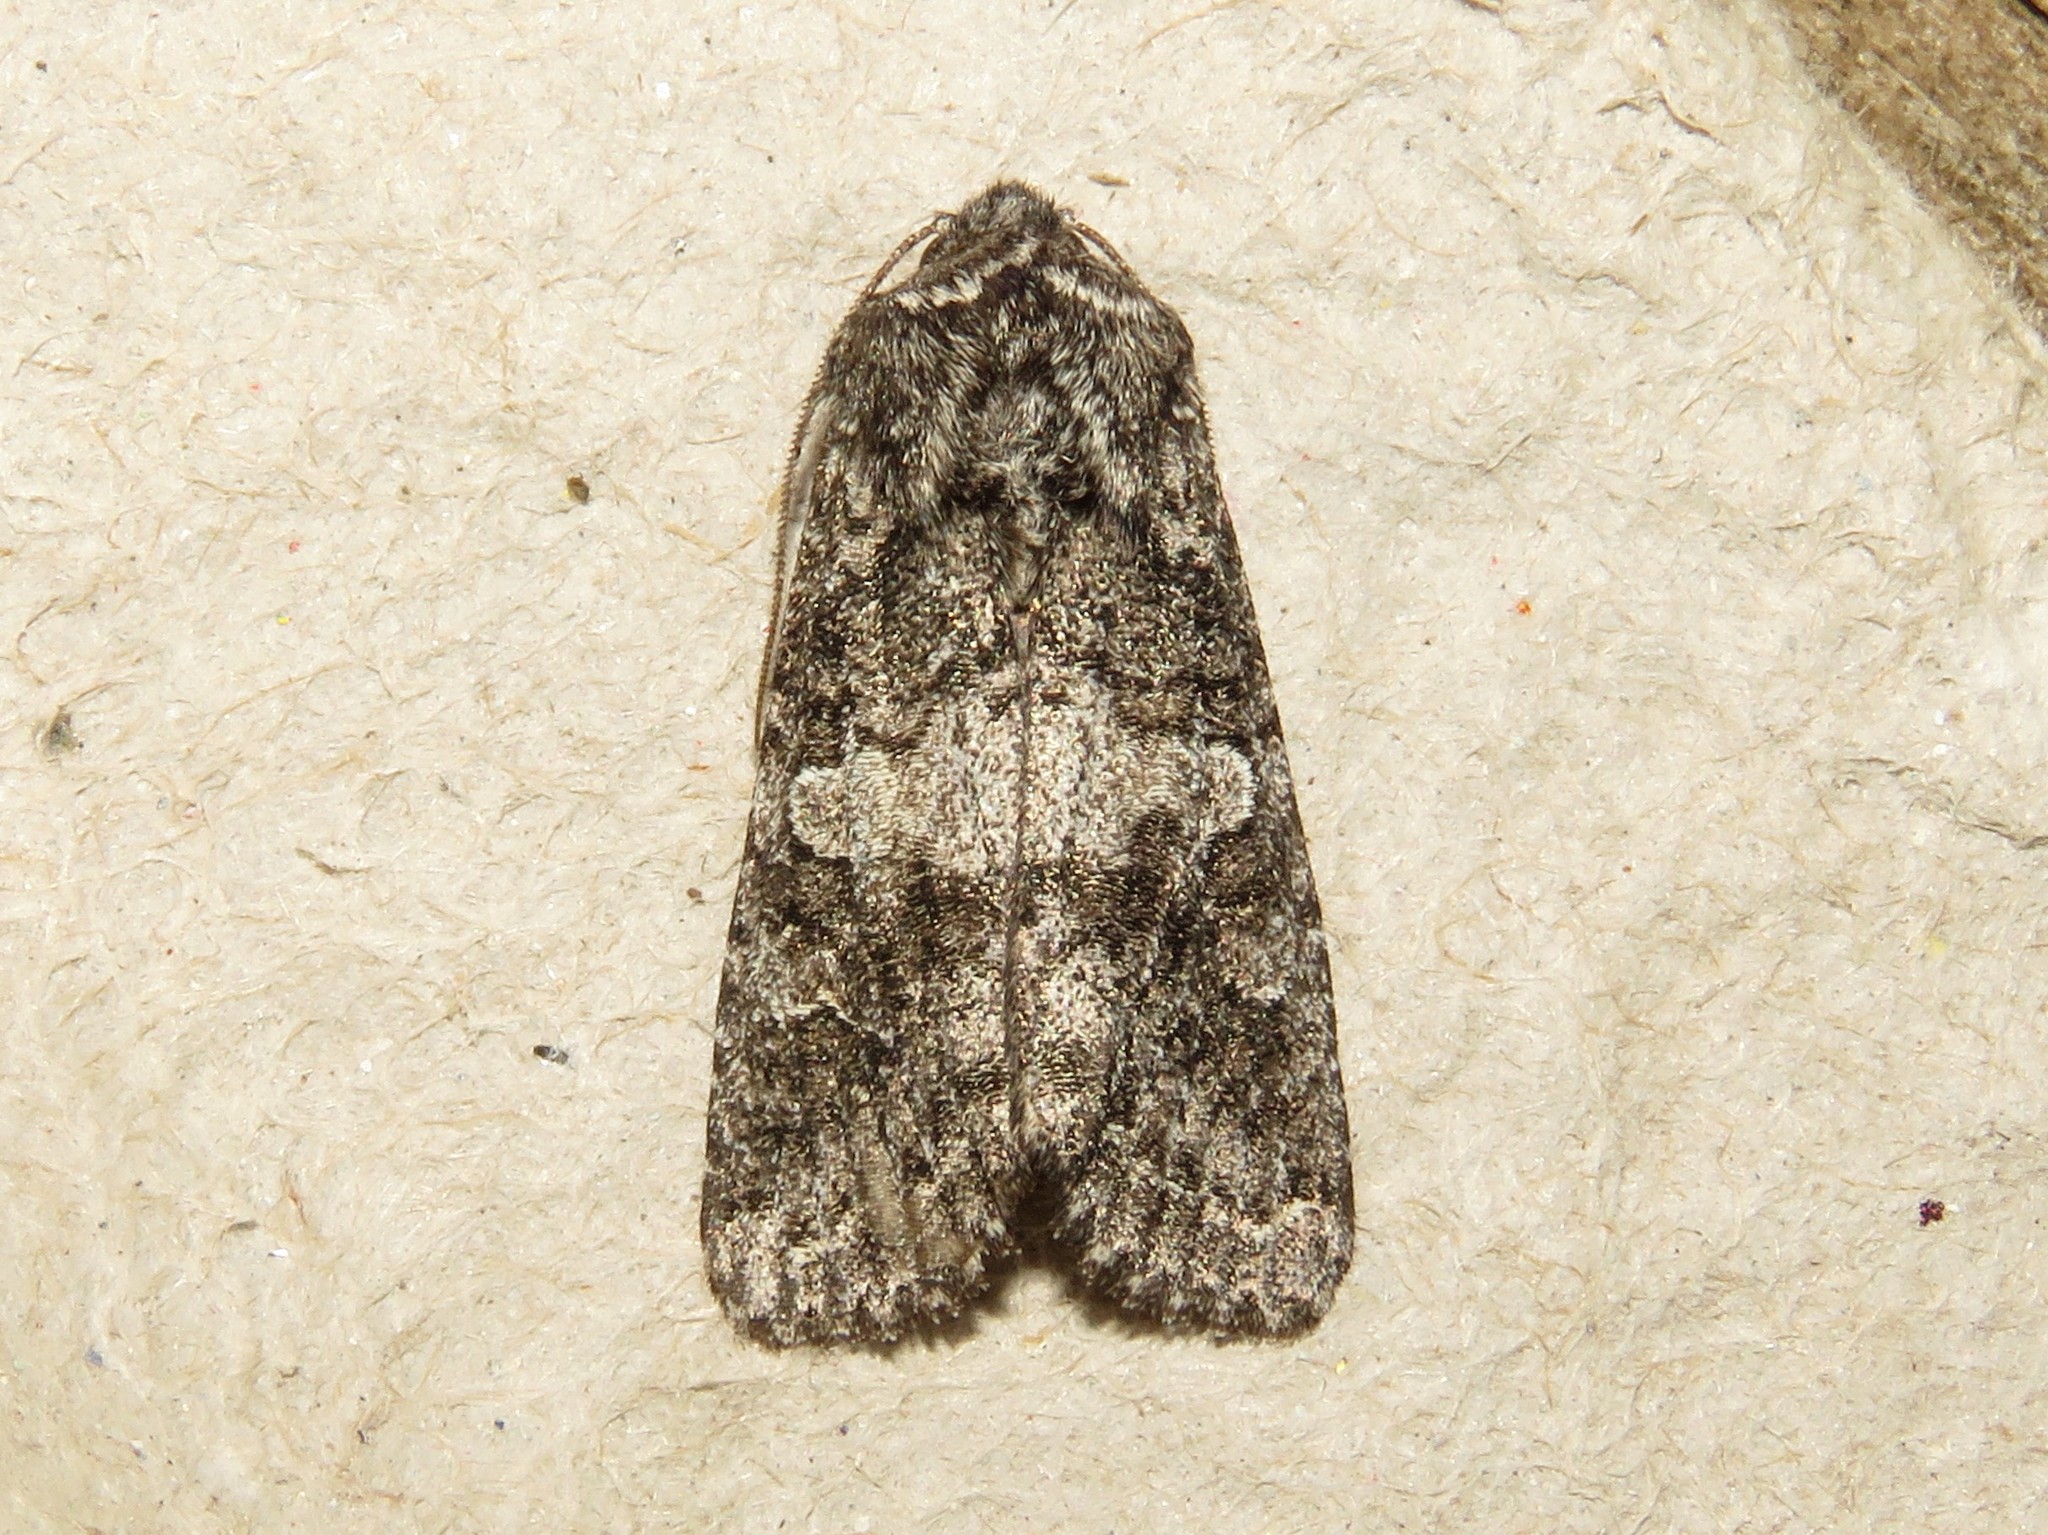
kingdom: Animalia
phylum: Arthropoda
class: Insecta
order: Lepidoptera
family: Noctuidae
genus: Egira
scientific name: Egira dolosa
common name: Lined black aspen cat.
